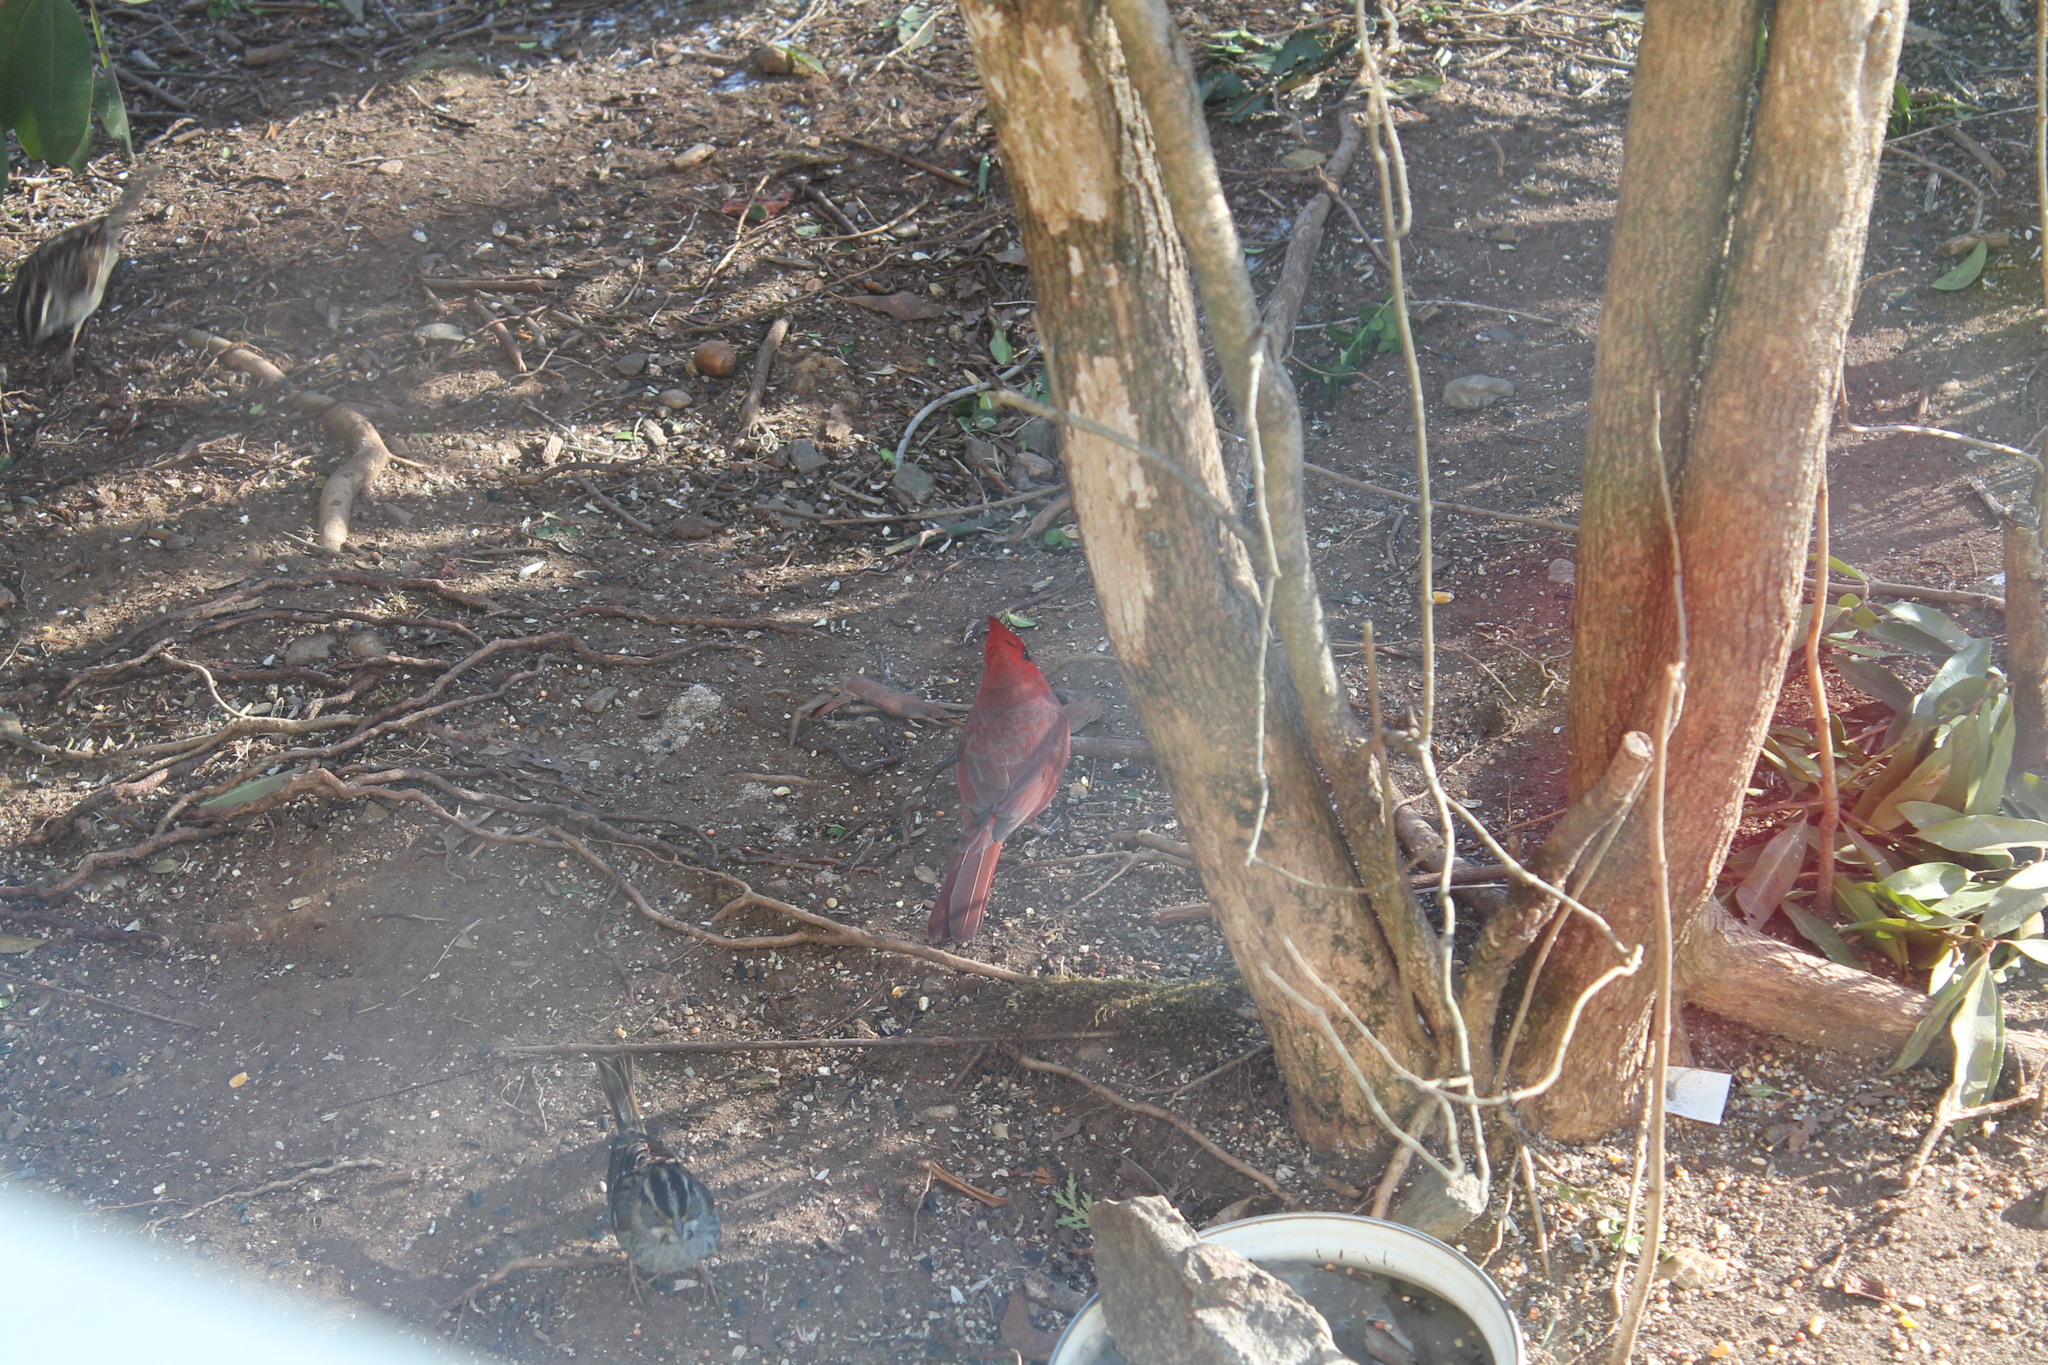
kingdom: Animalia
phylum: Chordata
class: Aves
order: Passeriformes
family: Cardinalidae
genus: Cardinalis
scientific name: Cardinalis cardinalis
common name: Northern cardinal
